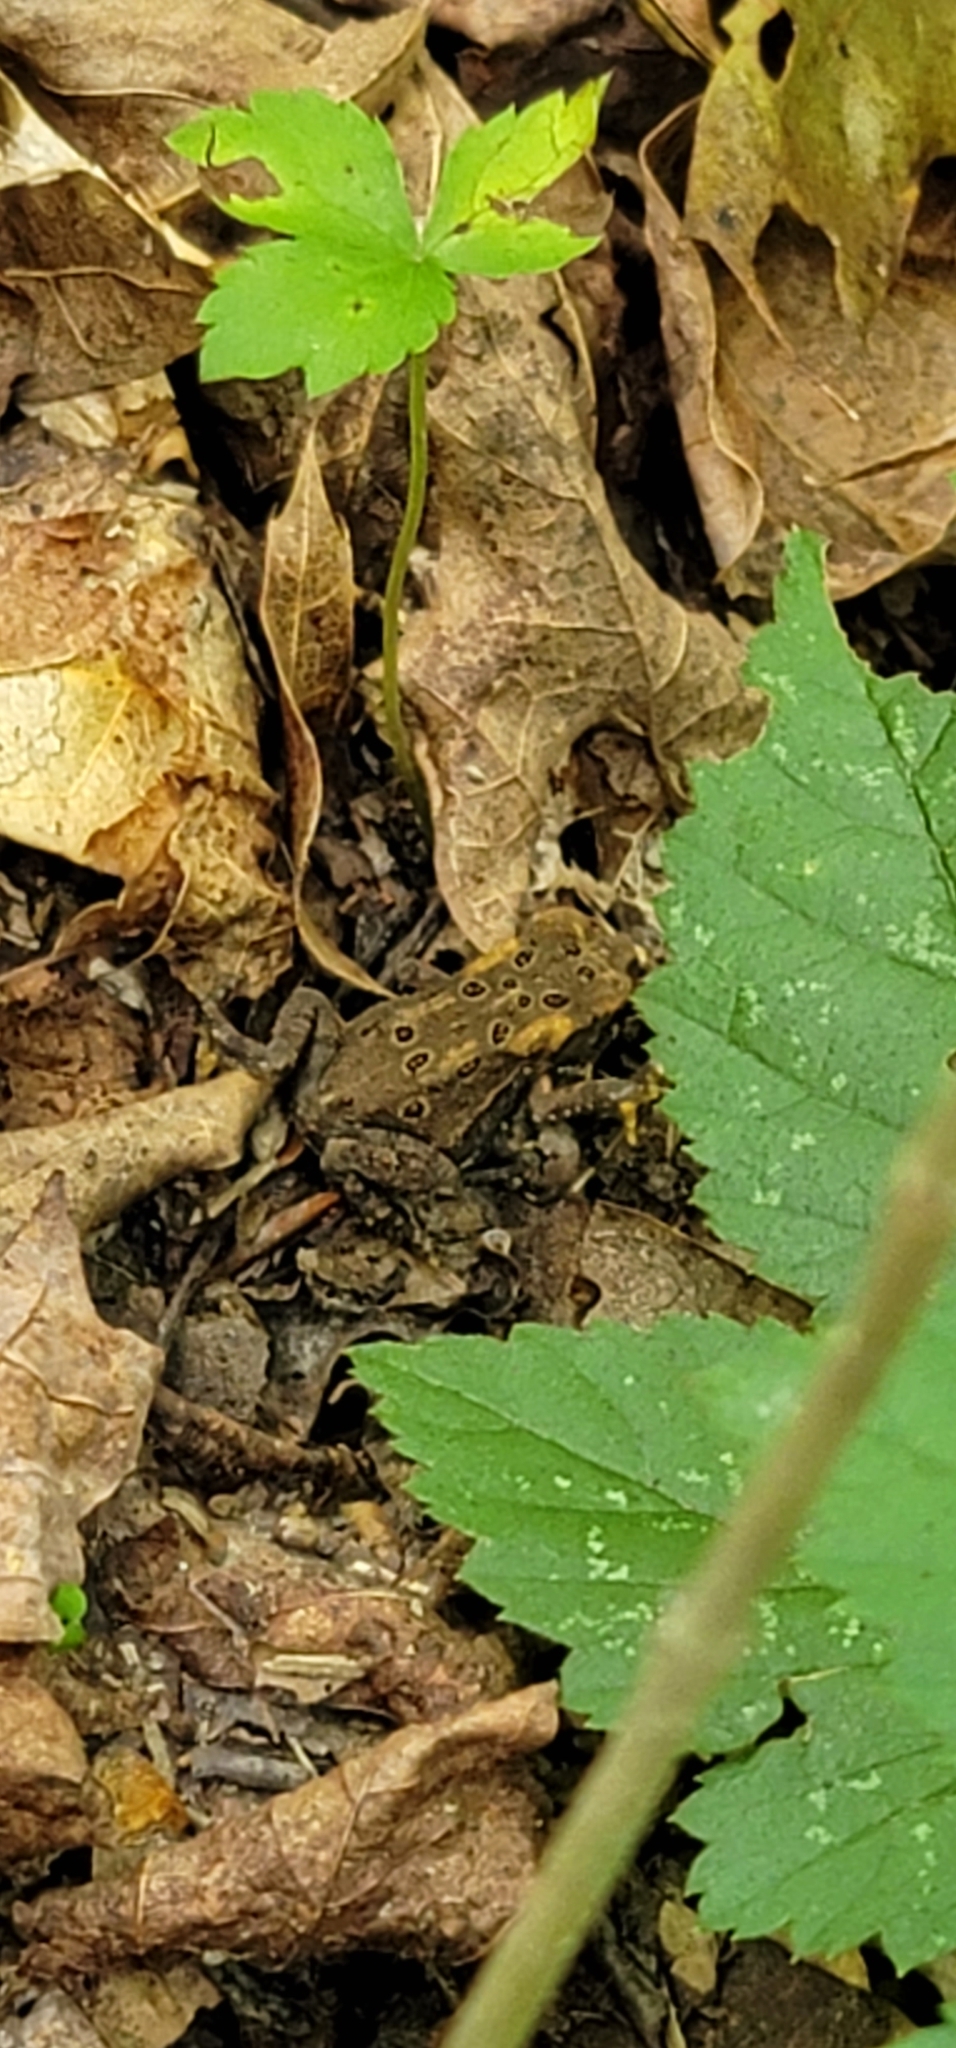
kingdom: Animalia
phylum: Chordata
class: Amphibia
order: Anura
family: Bufonidae
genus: Anaxyrus
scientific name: Anaxyrus americanus
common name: American toad
